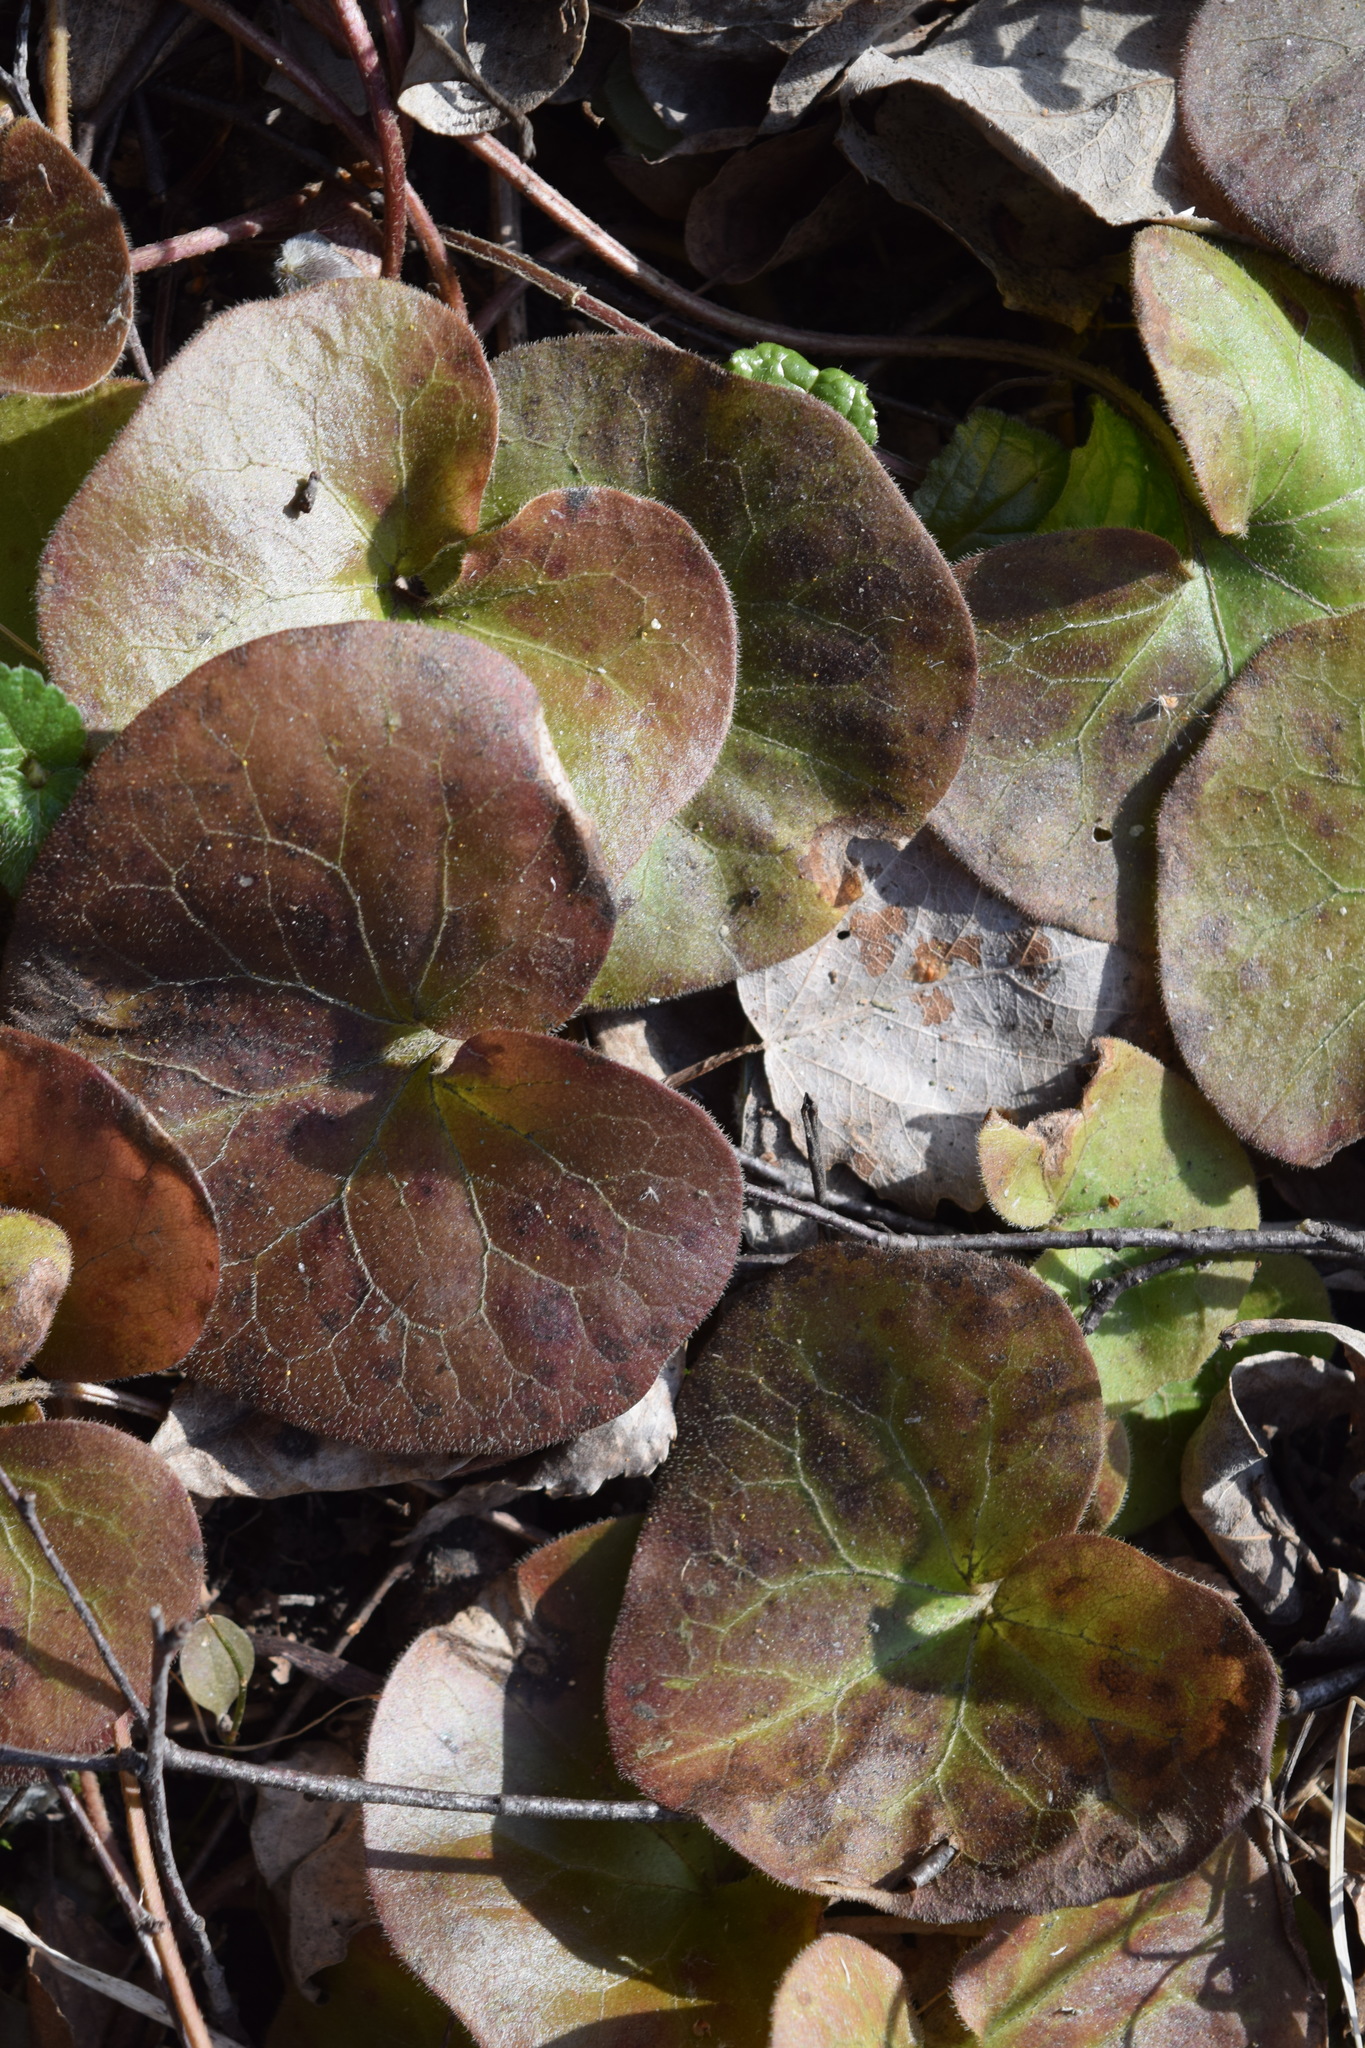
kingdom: Plantae
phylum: Tracheophyta
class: Magnoliopsida
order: Piperales
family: Aristolochiaceae
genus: Asarum
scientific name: Asarum europaeum
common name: Asarabacca
